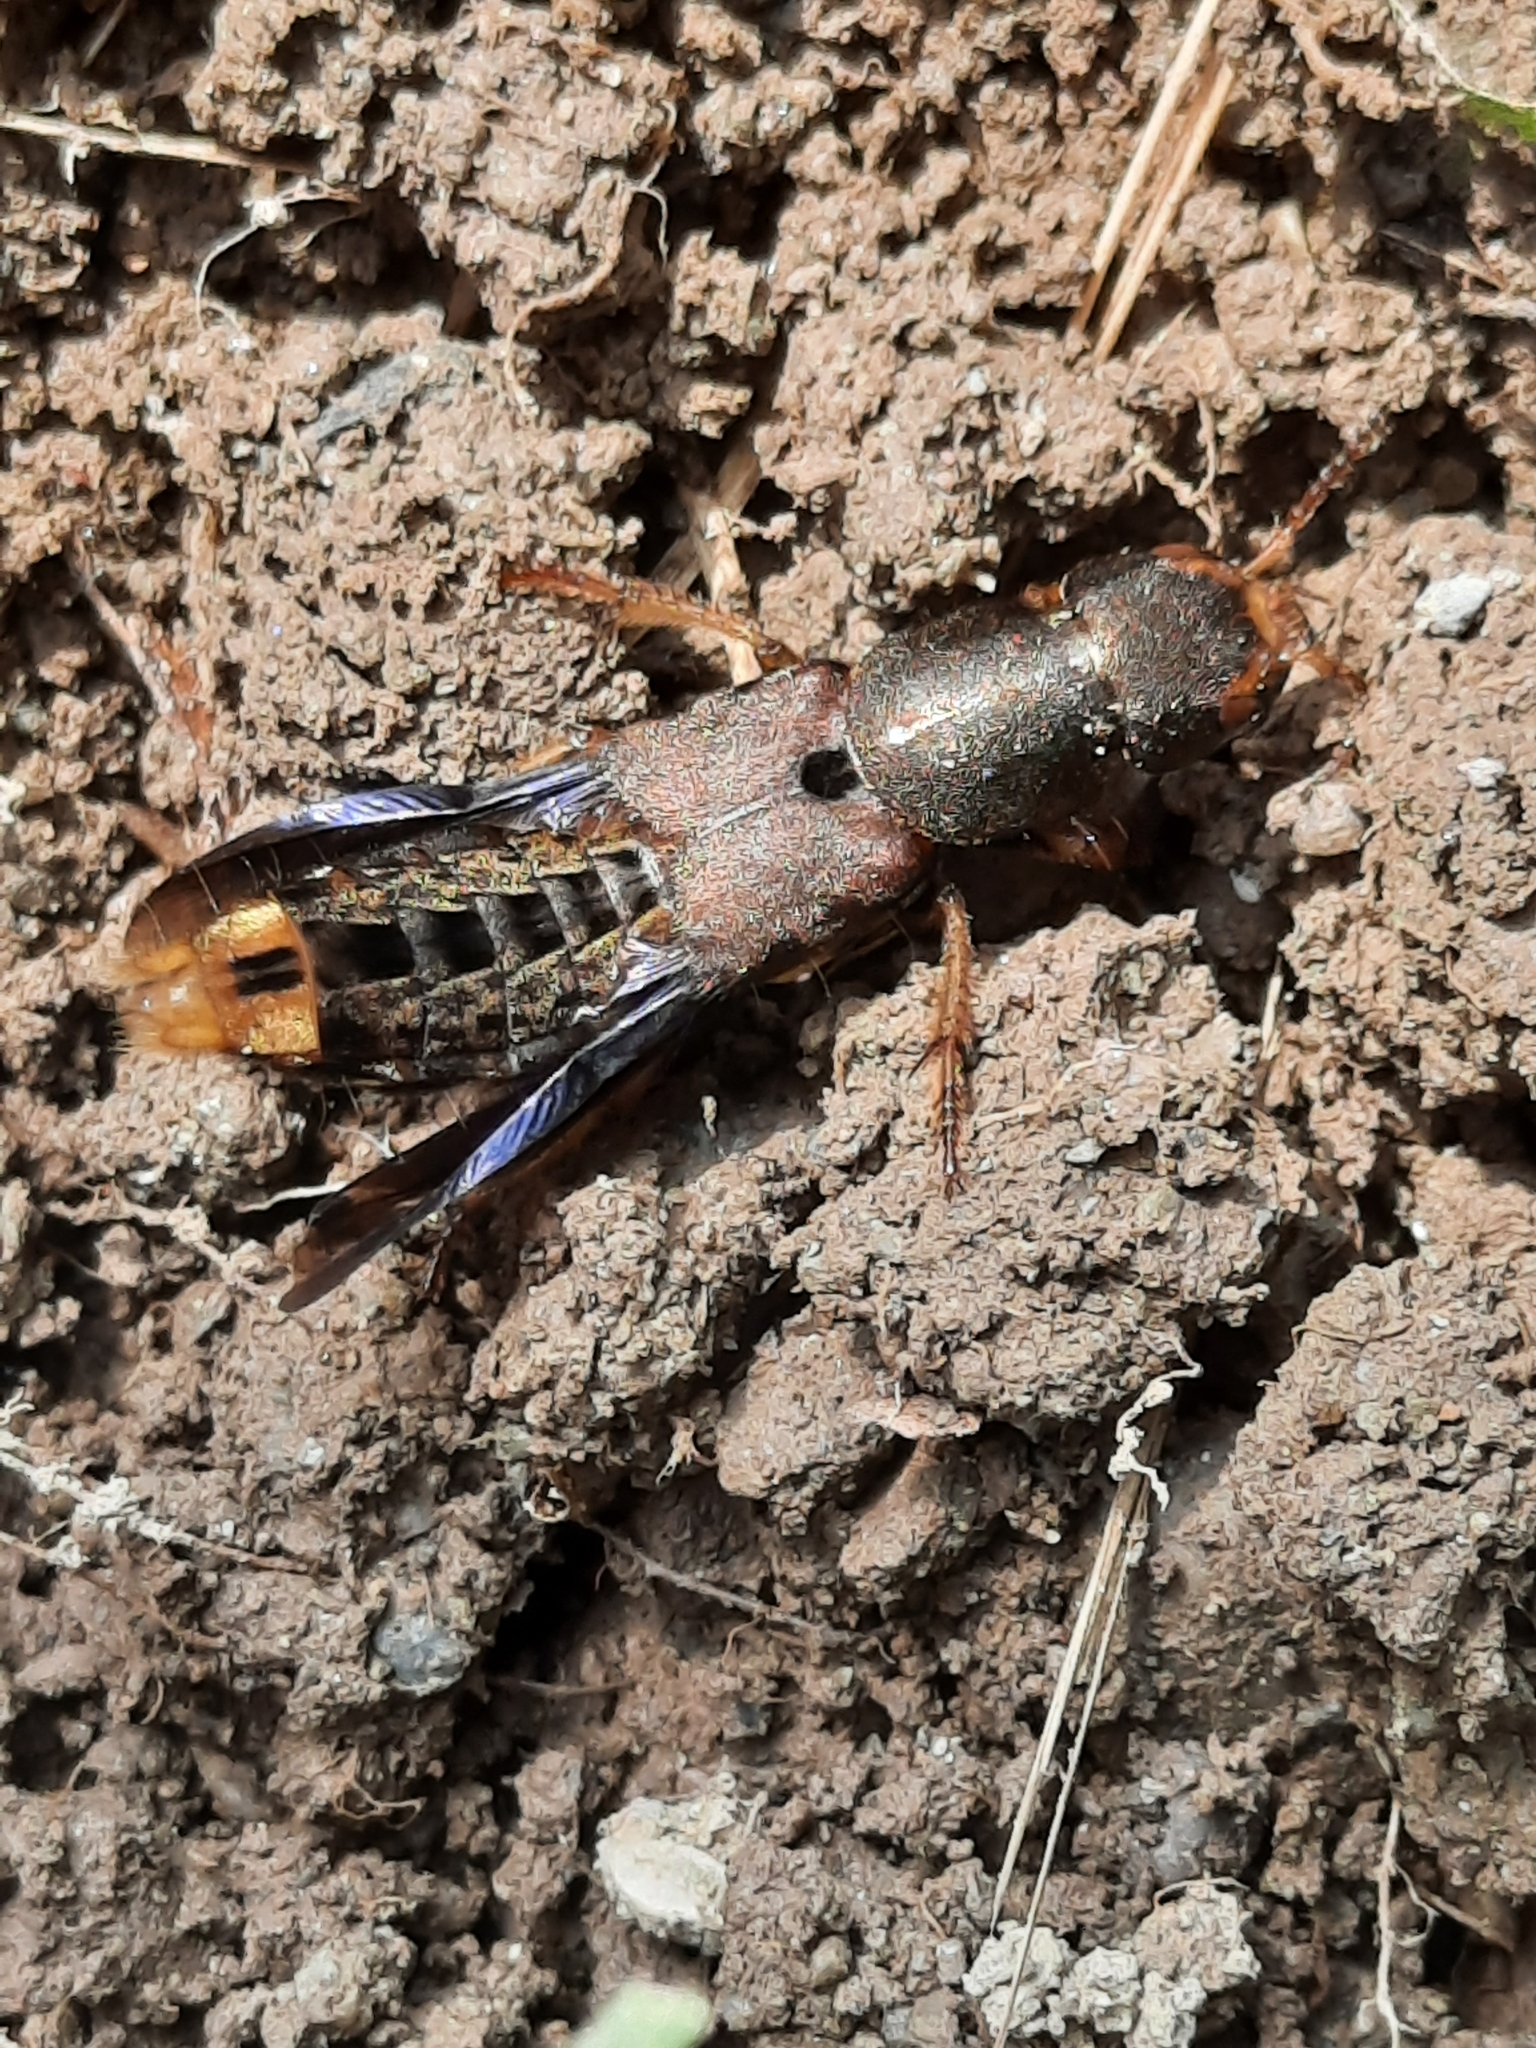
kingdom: Animalia
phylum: Arthropoda
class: Insecta
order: Coleoptera
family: Staphylinidae
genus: Platydracus
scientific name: Platydracus maculosus
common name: Brown rove beetle
